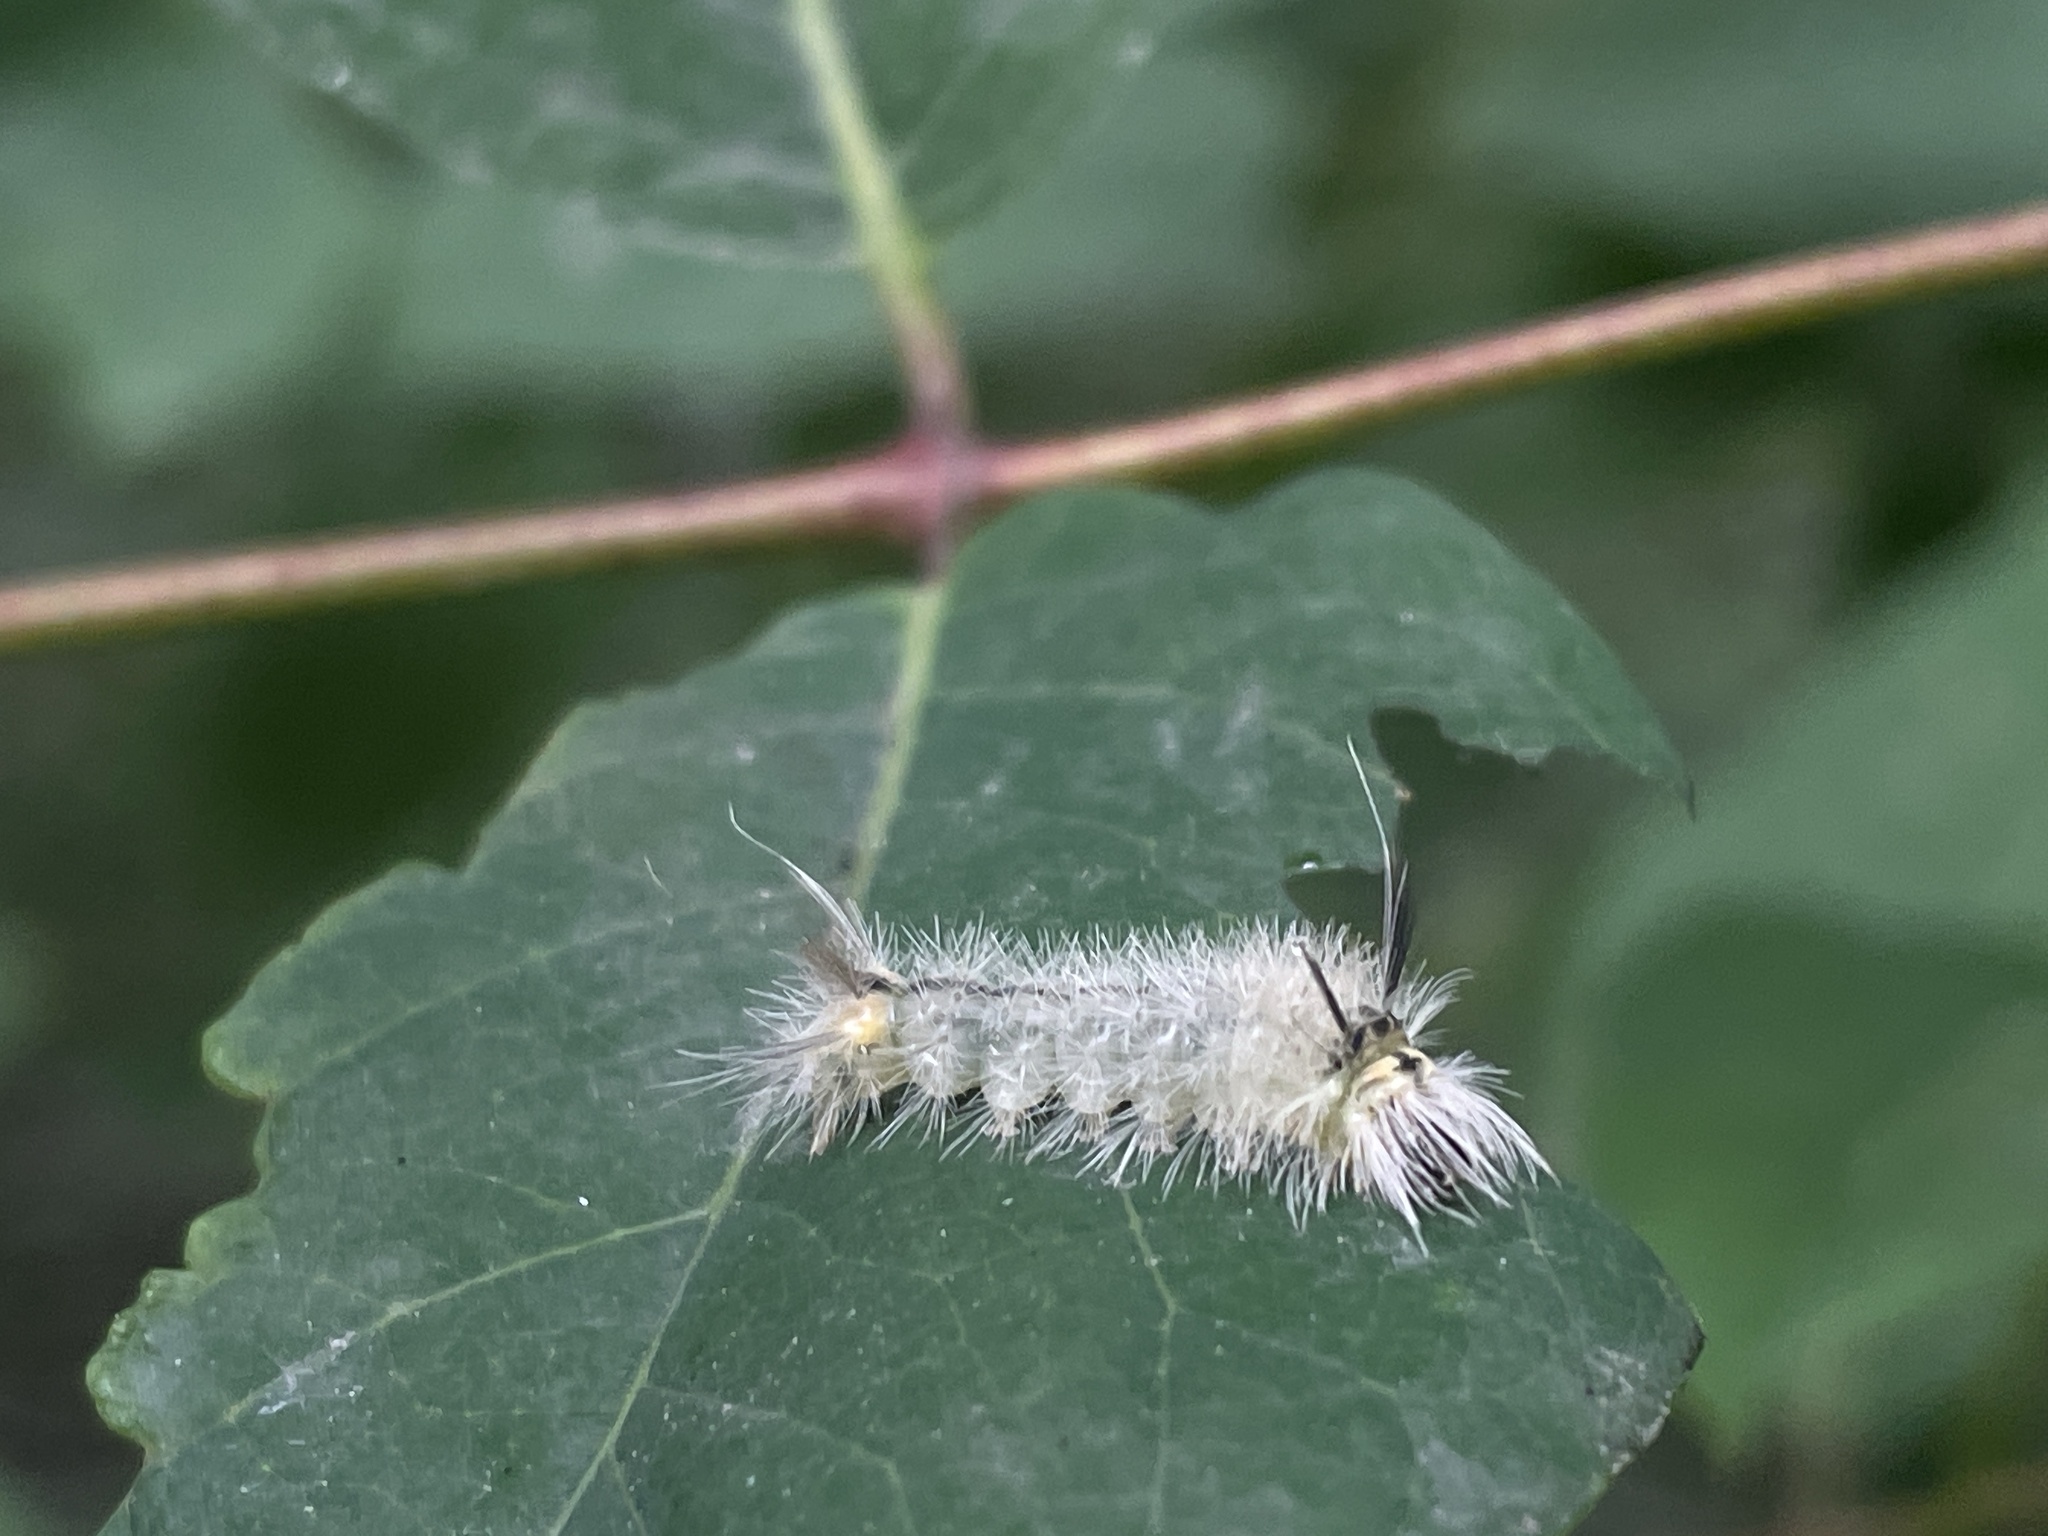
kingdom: Animalia
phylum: Arthropoda
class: Insecta
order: Lepidoptera
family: Erebidae
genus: Halysidota
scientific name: Halysidota tessellaris
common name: Banded tussock moth
